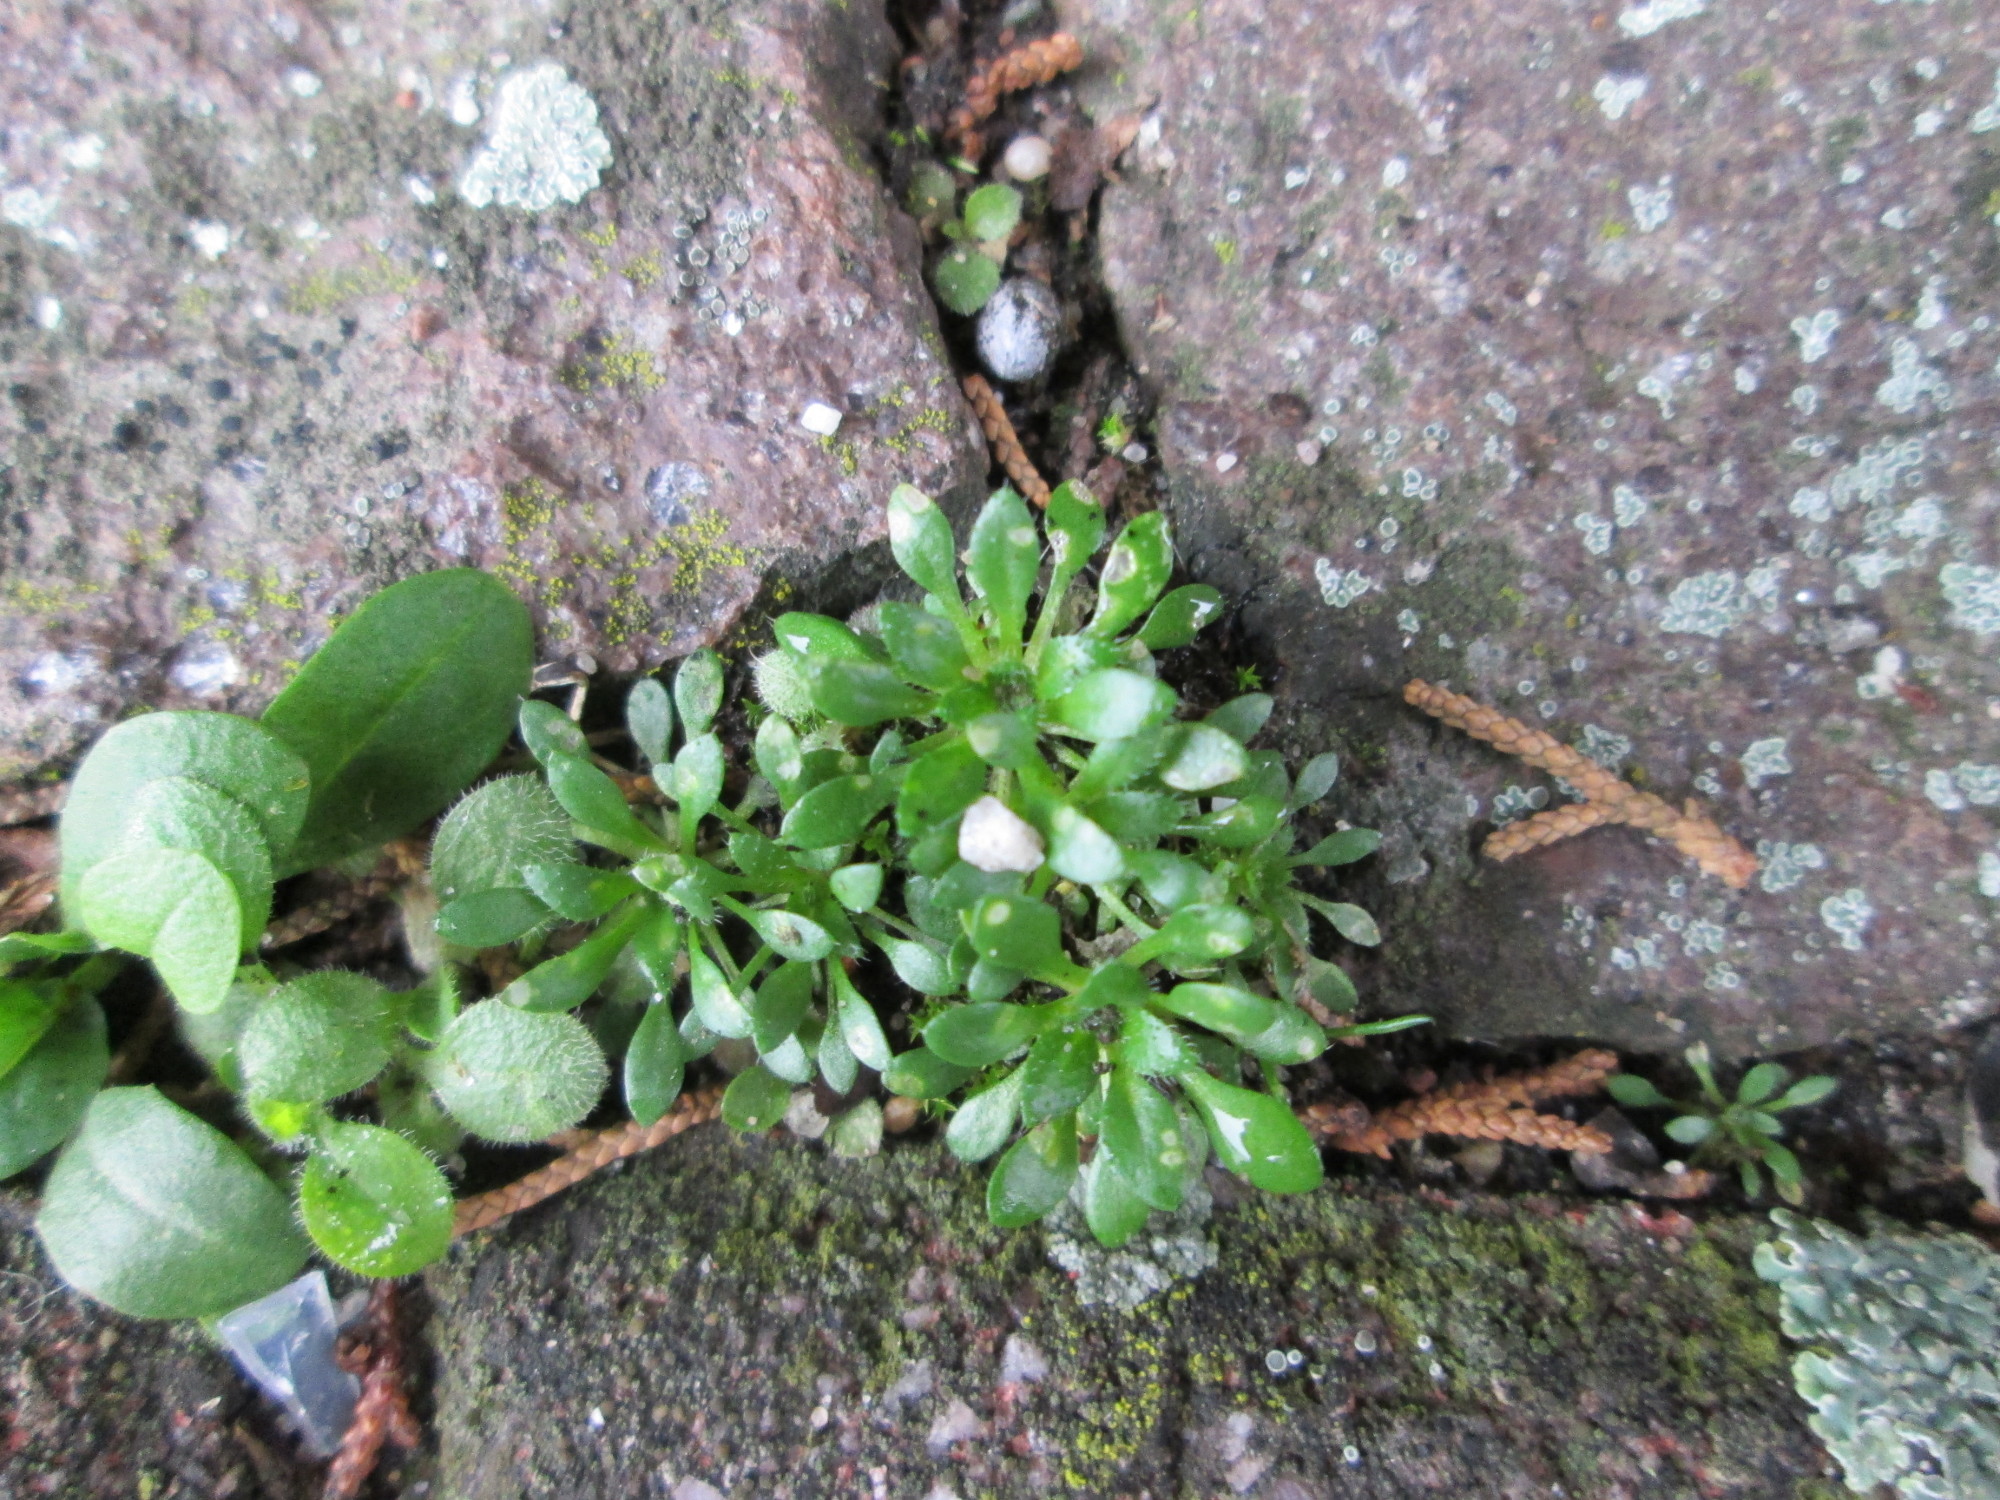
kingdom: Plantae
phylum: Tracheophyta
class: Magnoliopsida
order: Brassicales
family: Brassicaceae
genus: Draba
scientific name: Draba verna
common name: Spring draba
